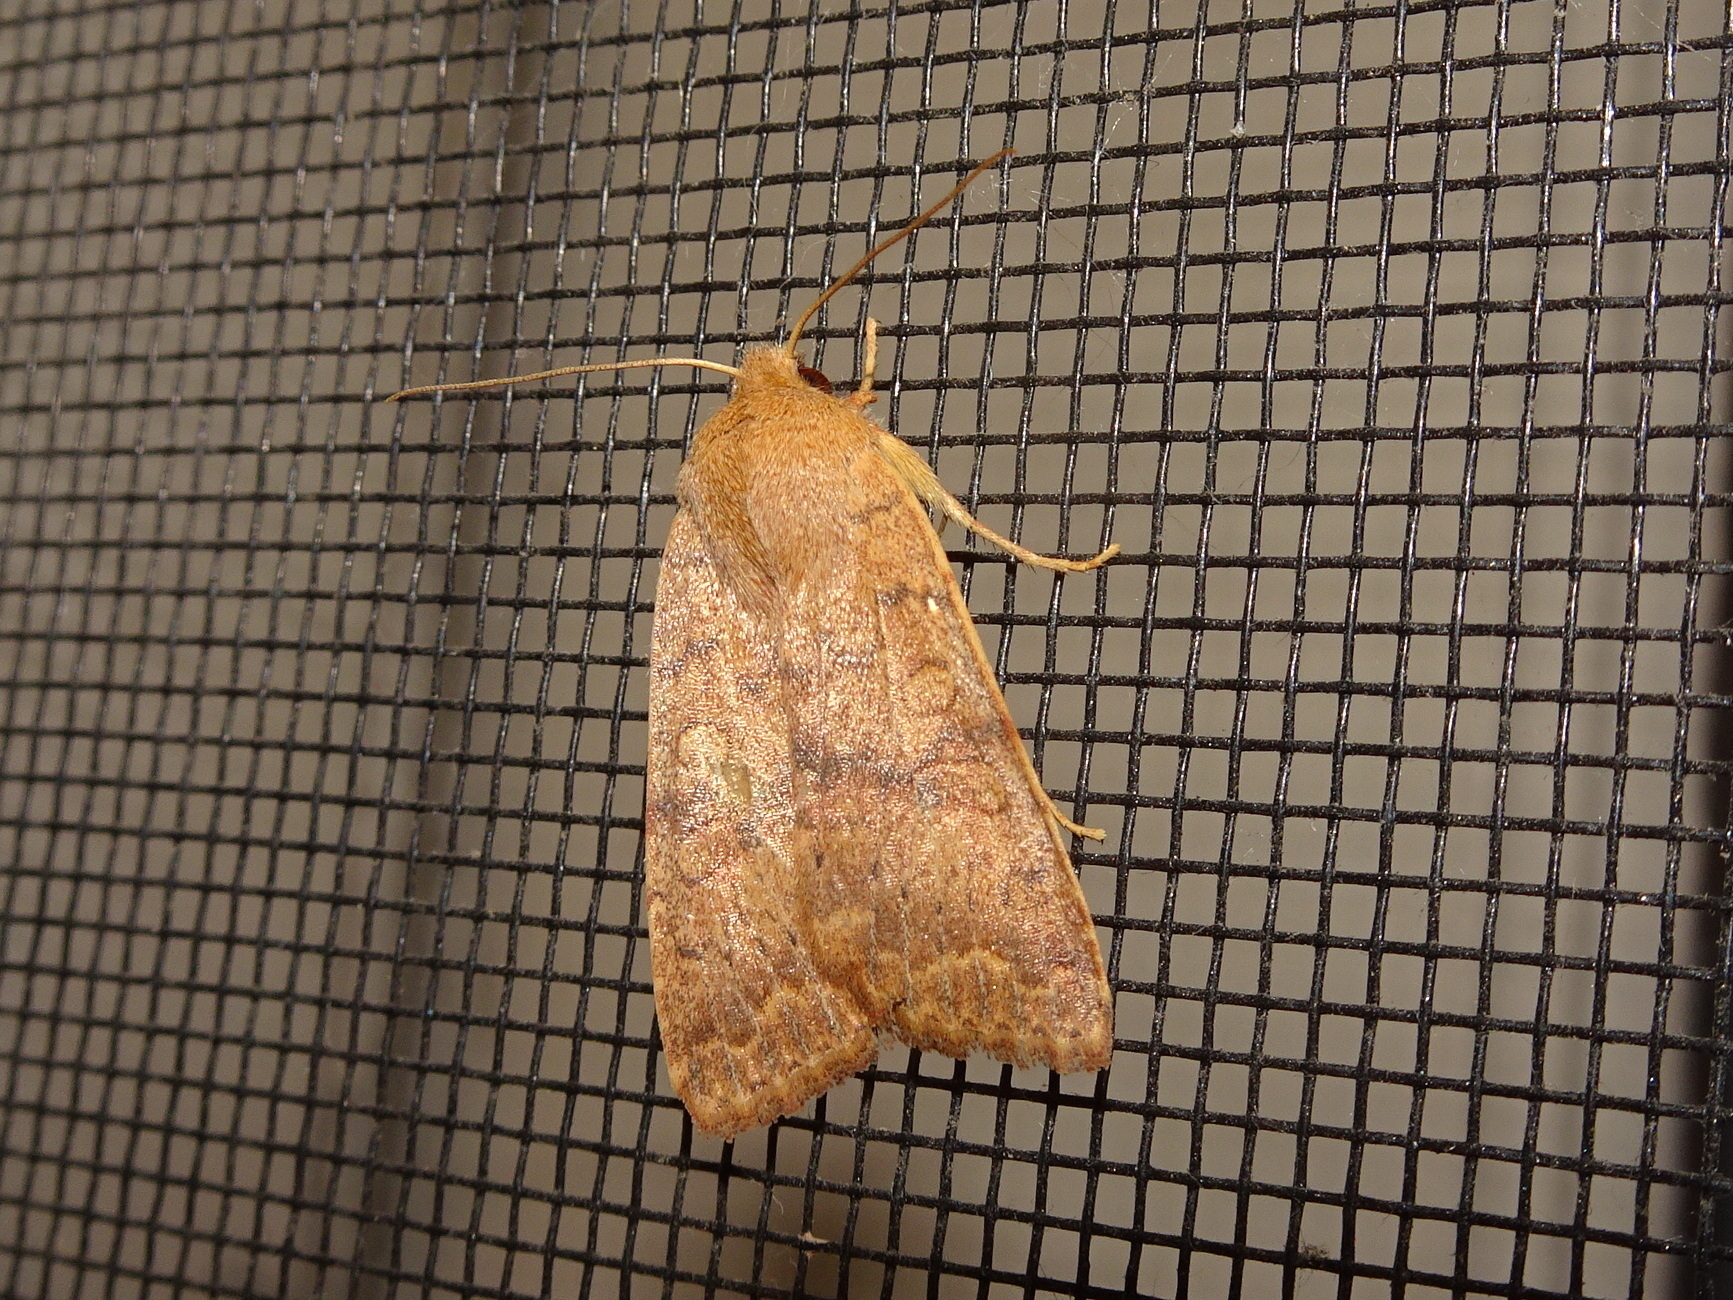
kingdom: Animalia
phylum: Arthropoda
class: Insecta
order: Lepidoptera
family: Noctuidae
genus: Agrochola
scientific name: Agrochola bicolorago
